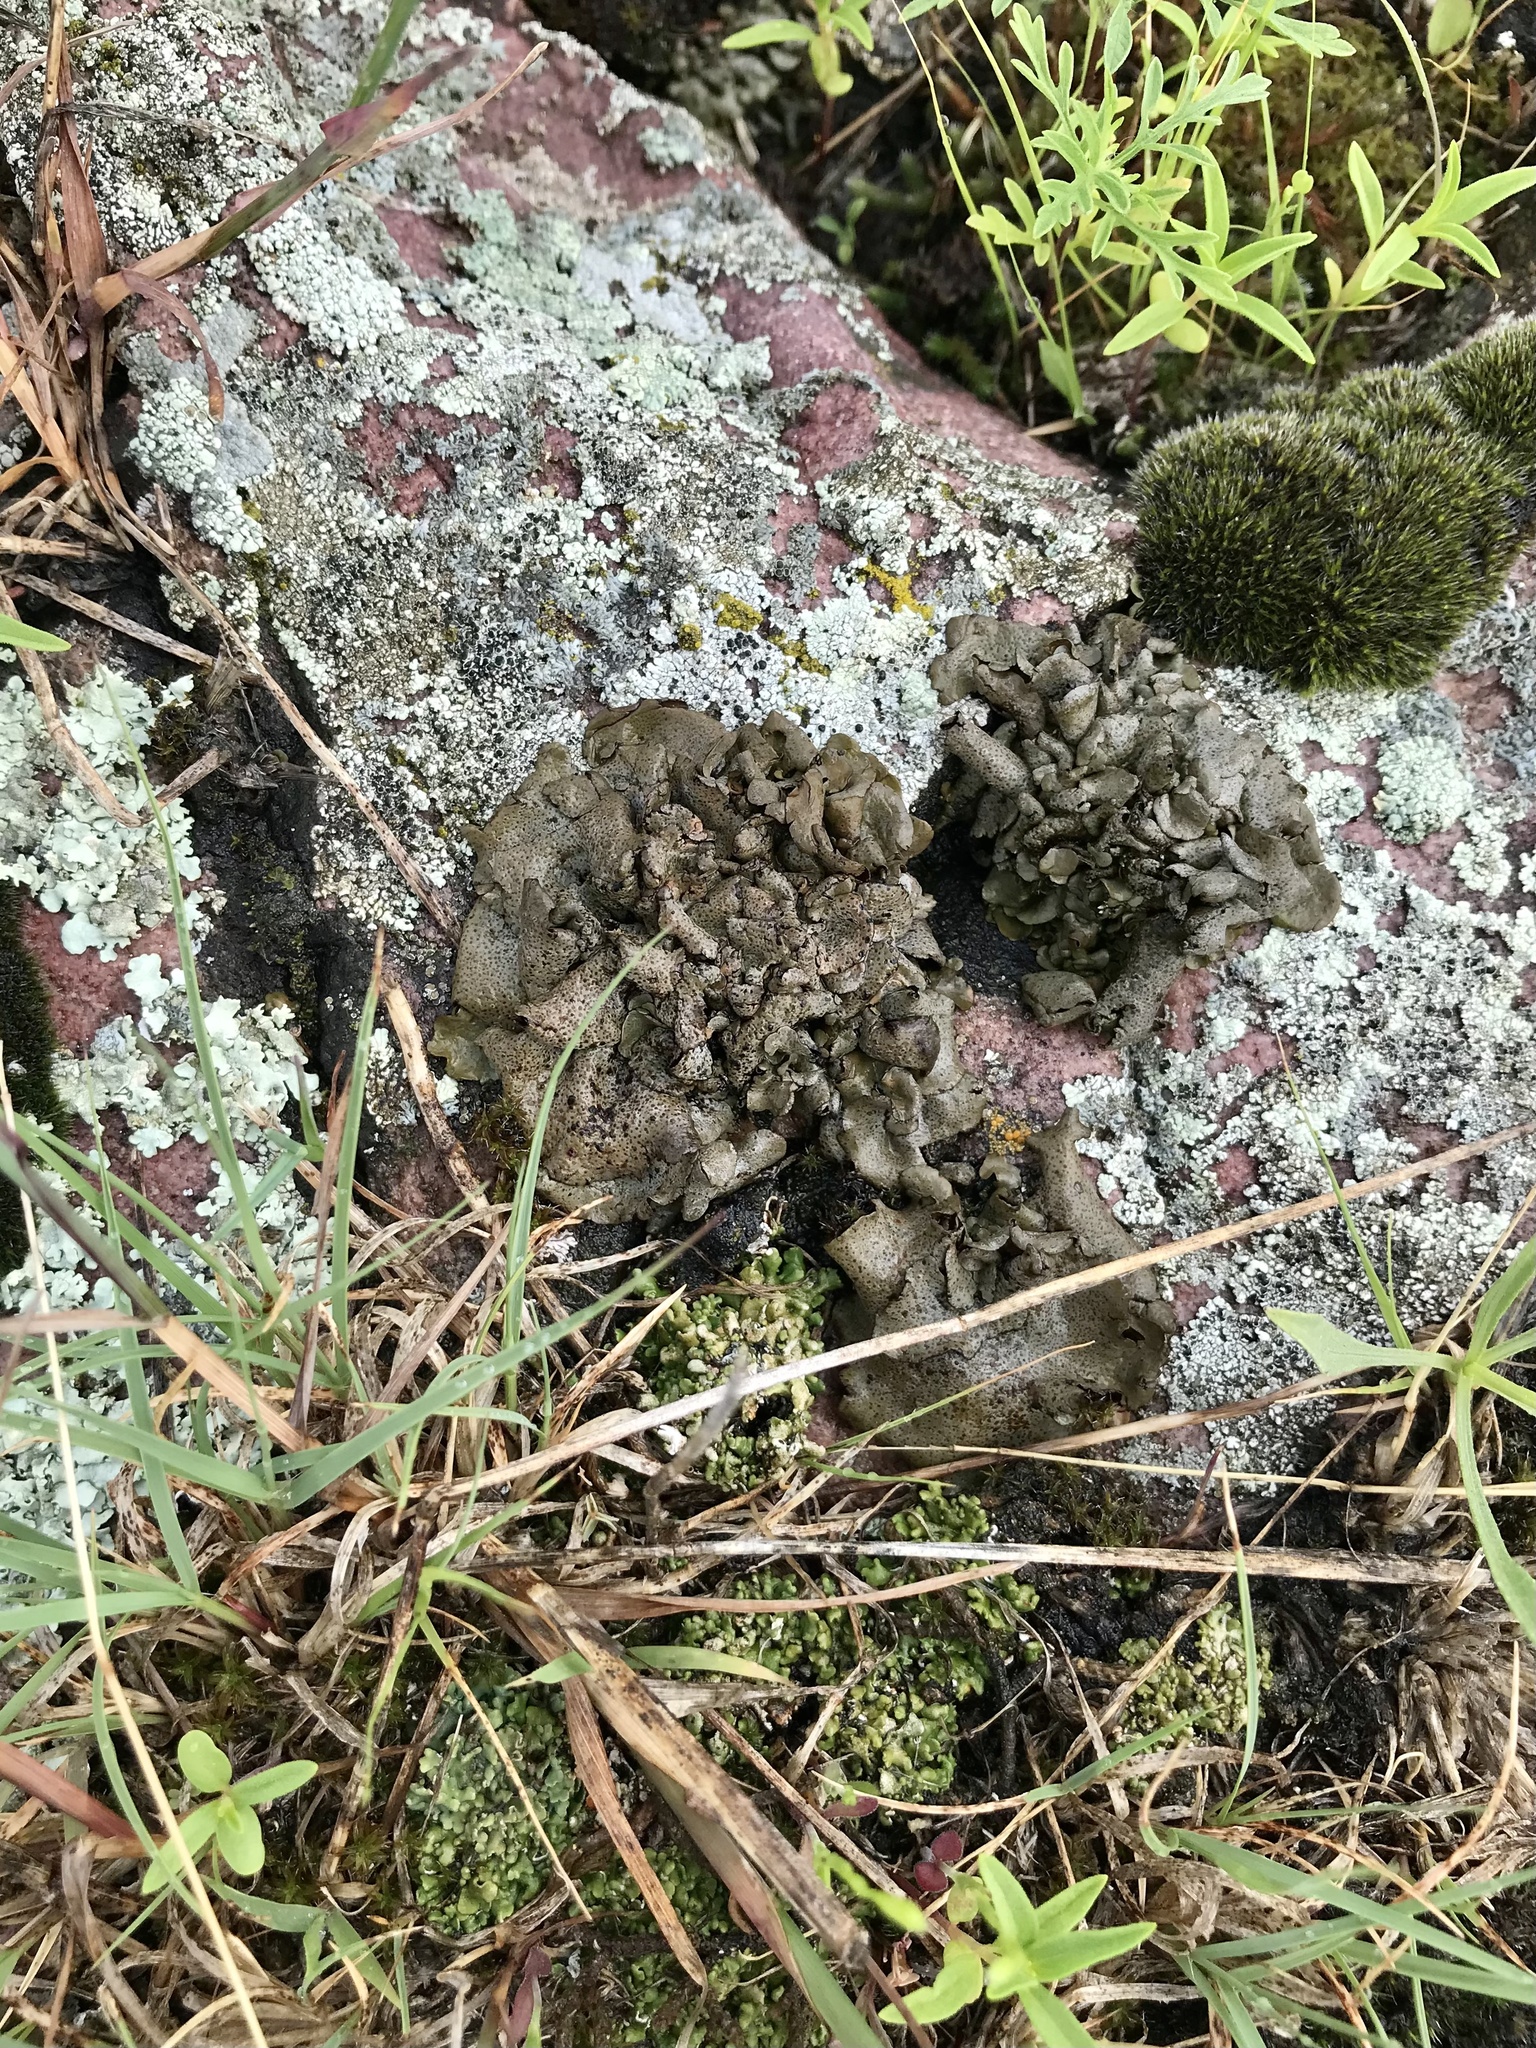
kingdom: Fungi
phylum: Ascomycota
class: Eurotiomycetes
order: Verrucariales
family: Verrucariaceae
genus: Dermatocarpon
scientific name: Dermatocarpon arenosaxi
